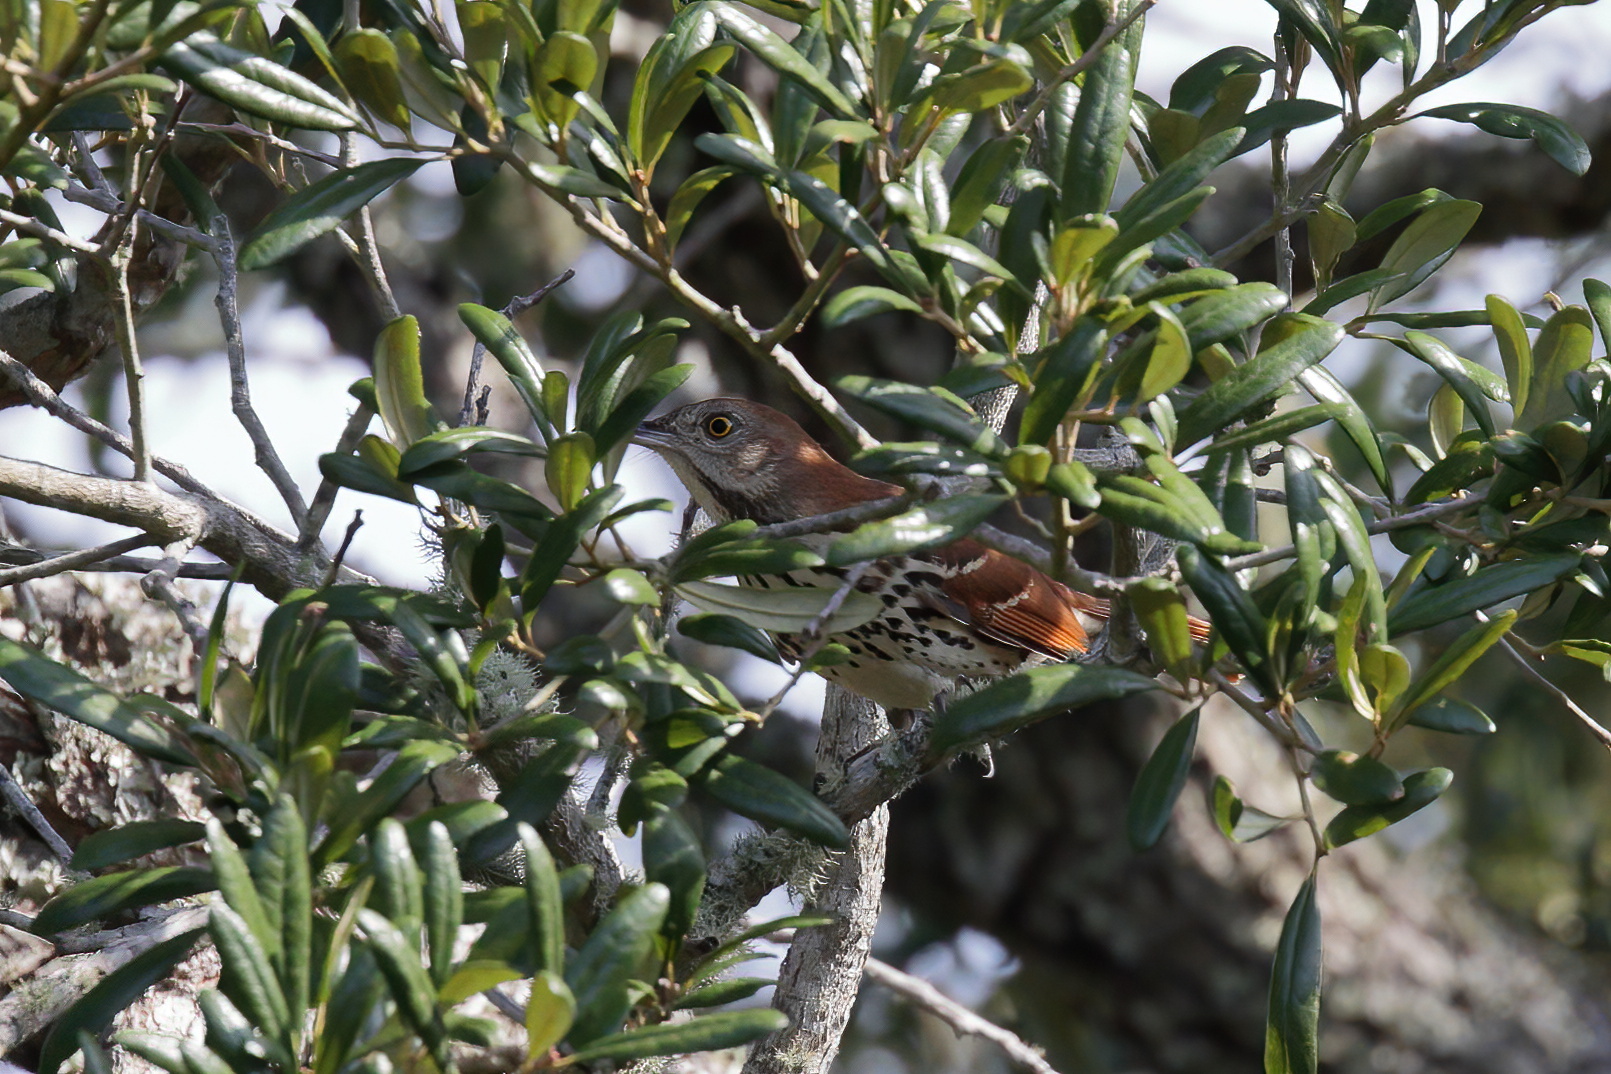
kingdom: Animalia
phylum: Chordata
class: Aves
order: Passeriformes
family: Mimidae
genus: Toxostoma
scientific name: Toxostoma rufum
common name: Brown thrasher
